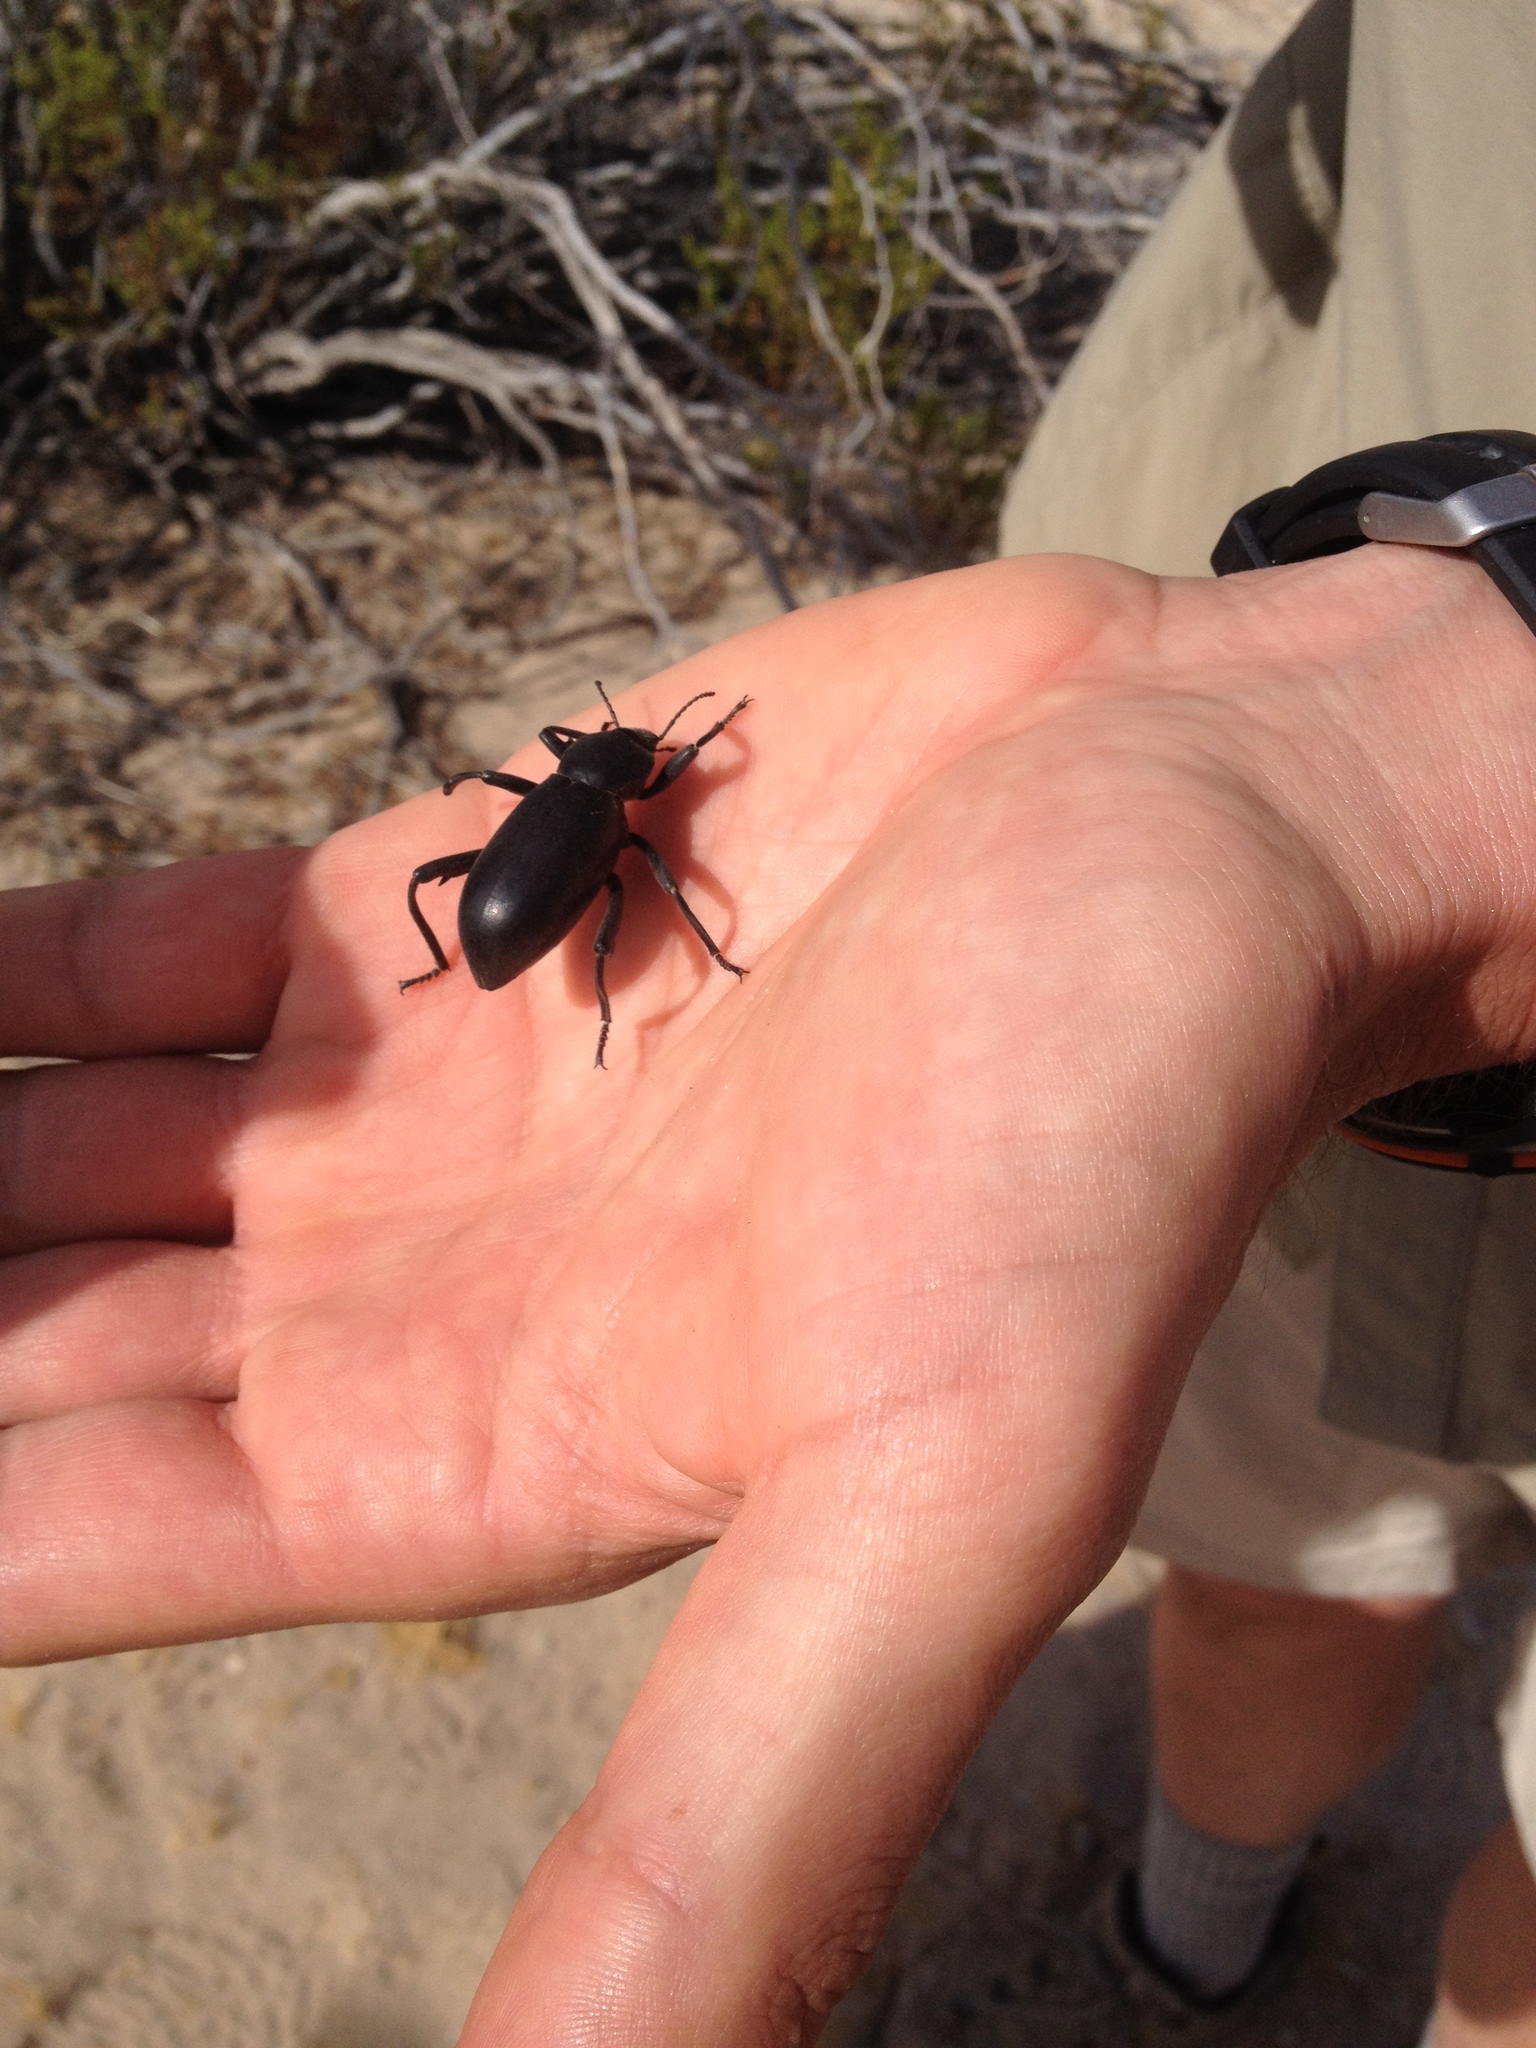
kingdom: Animalia
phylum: Arthropoda
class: Insecta
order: Coleoptera
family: Tenebrionidae
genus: Eleodes
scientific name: Eleodes armata
